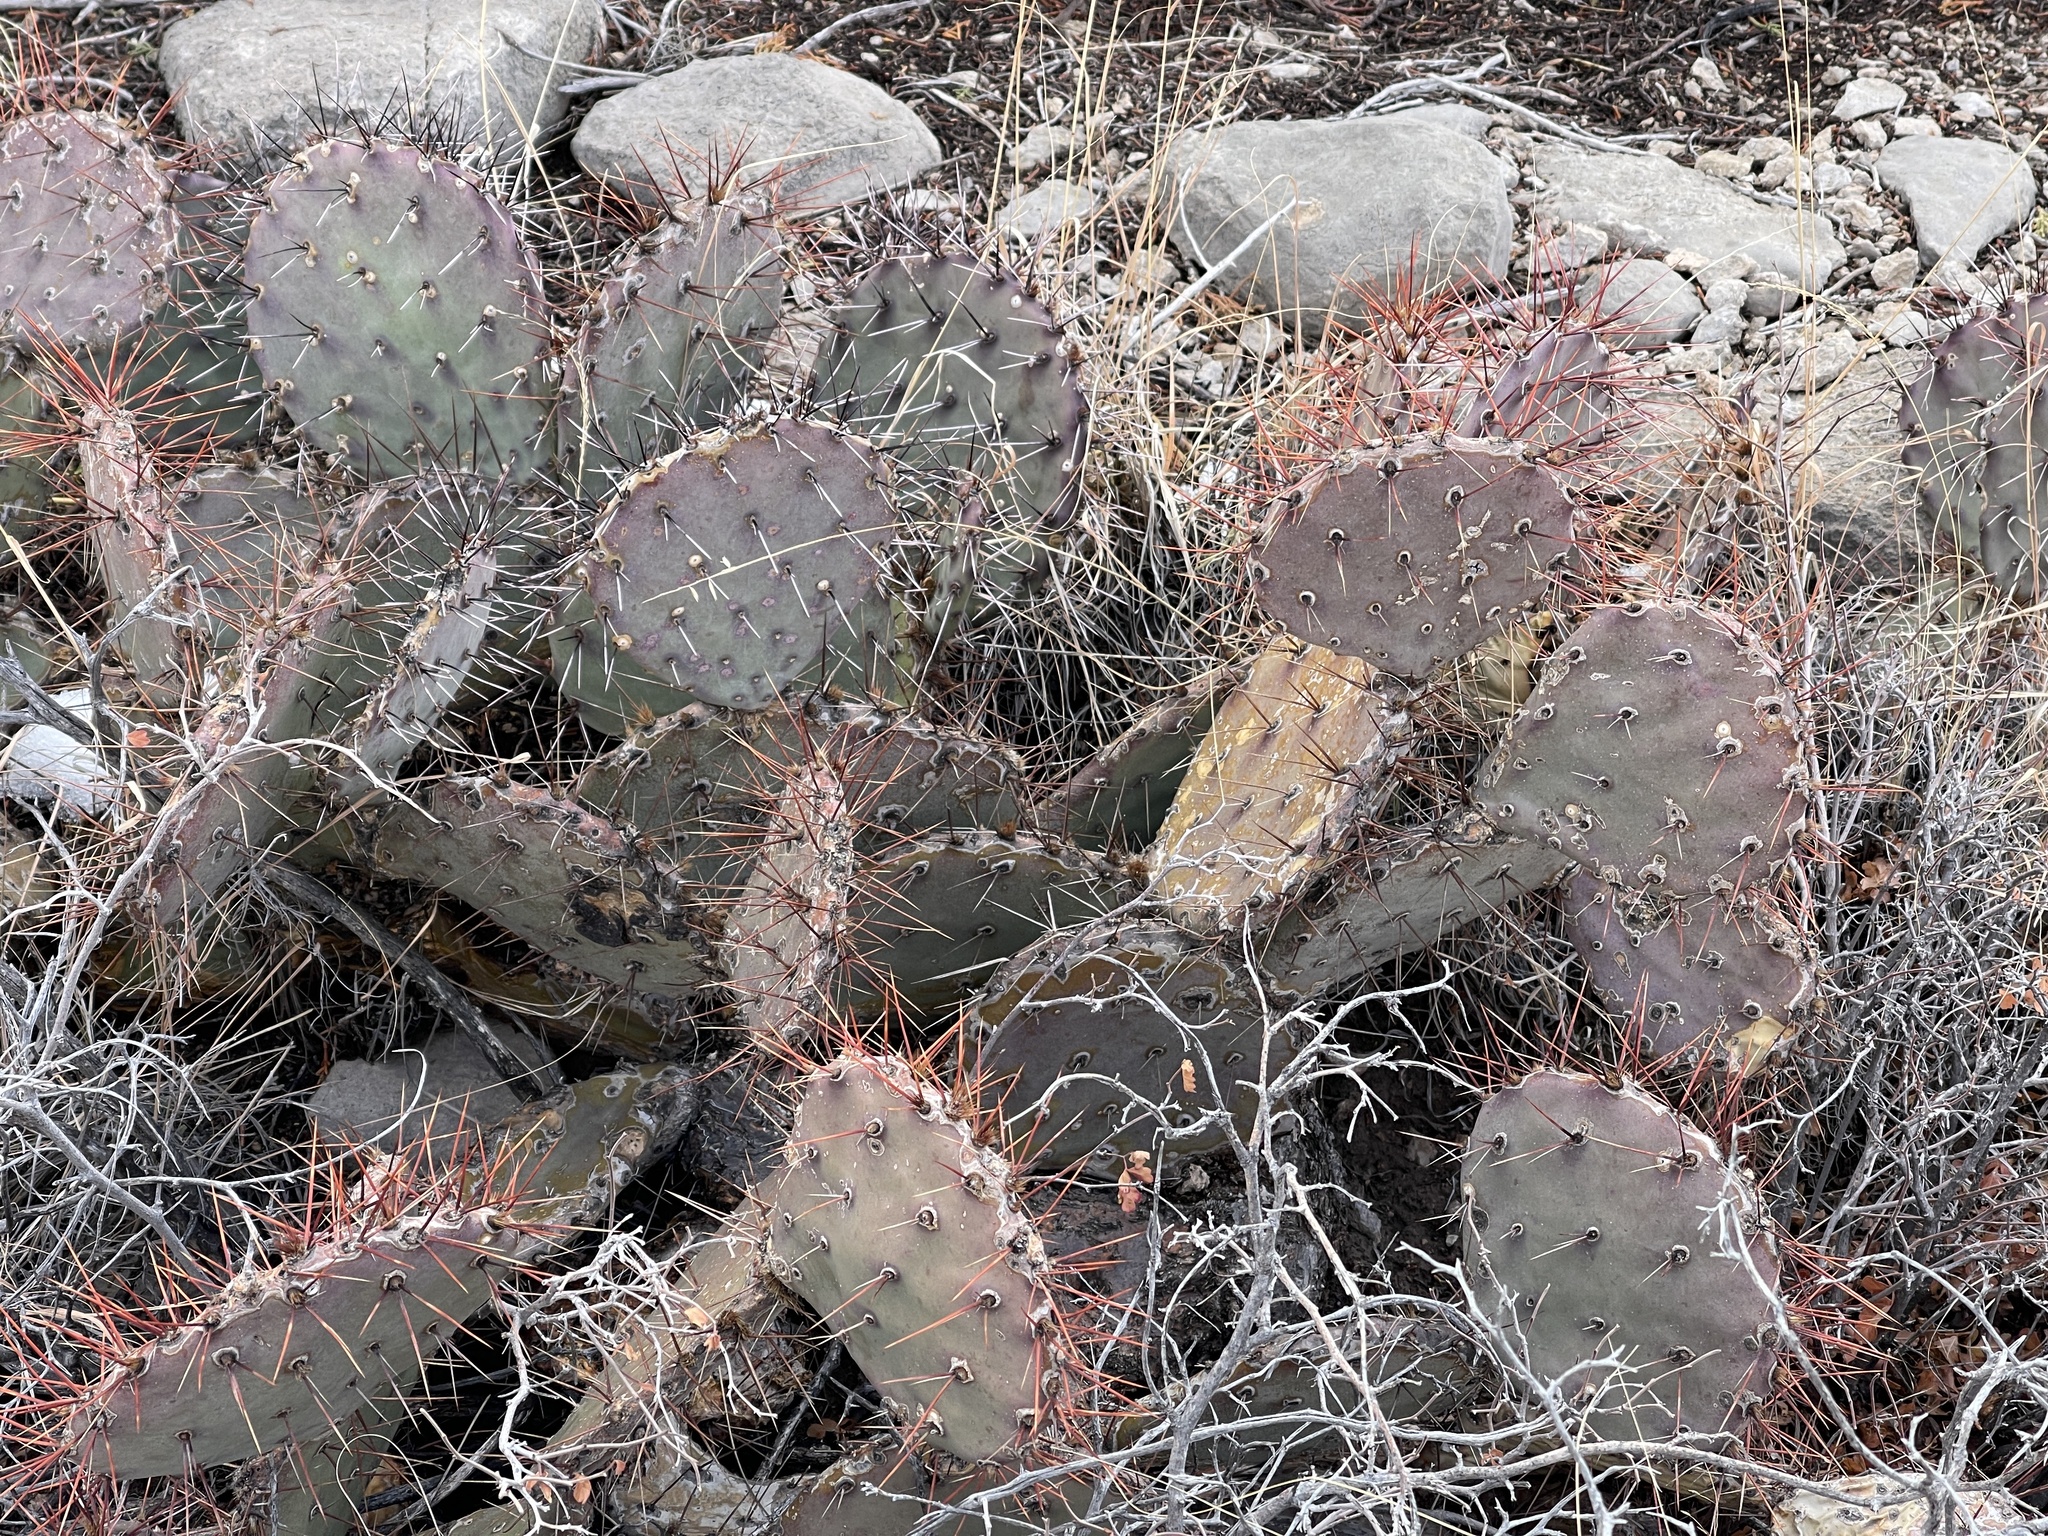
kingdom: Plantae
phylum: Tracheophyta
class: Magnoliopsida
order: Caryophyllales
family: Cactaceae
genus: Opuntia
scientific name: Opuntia macrocentra
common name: Purple prickly-pear
